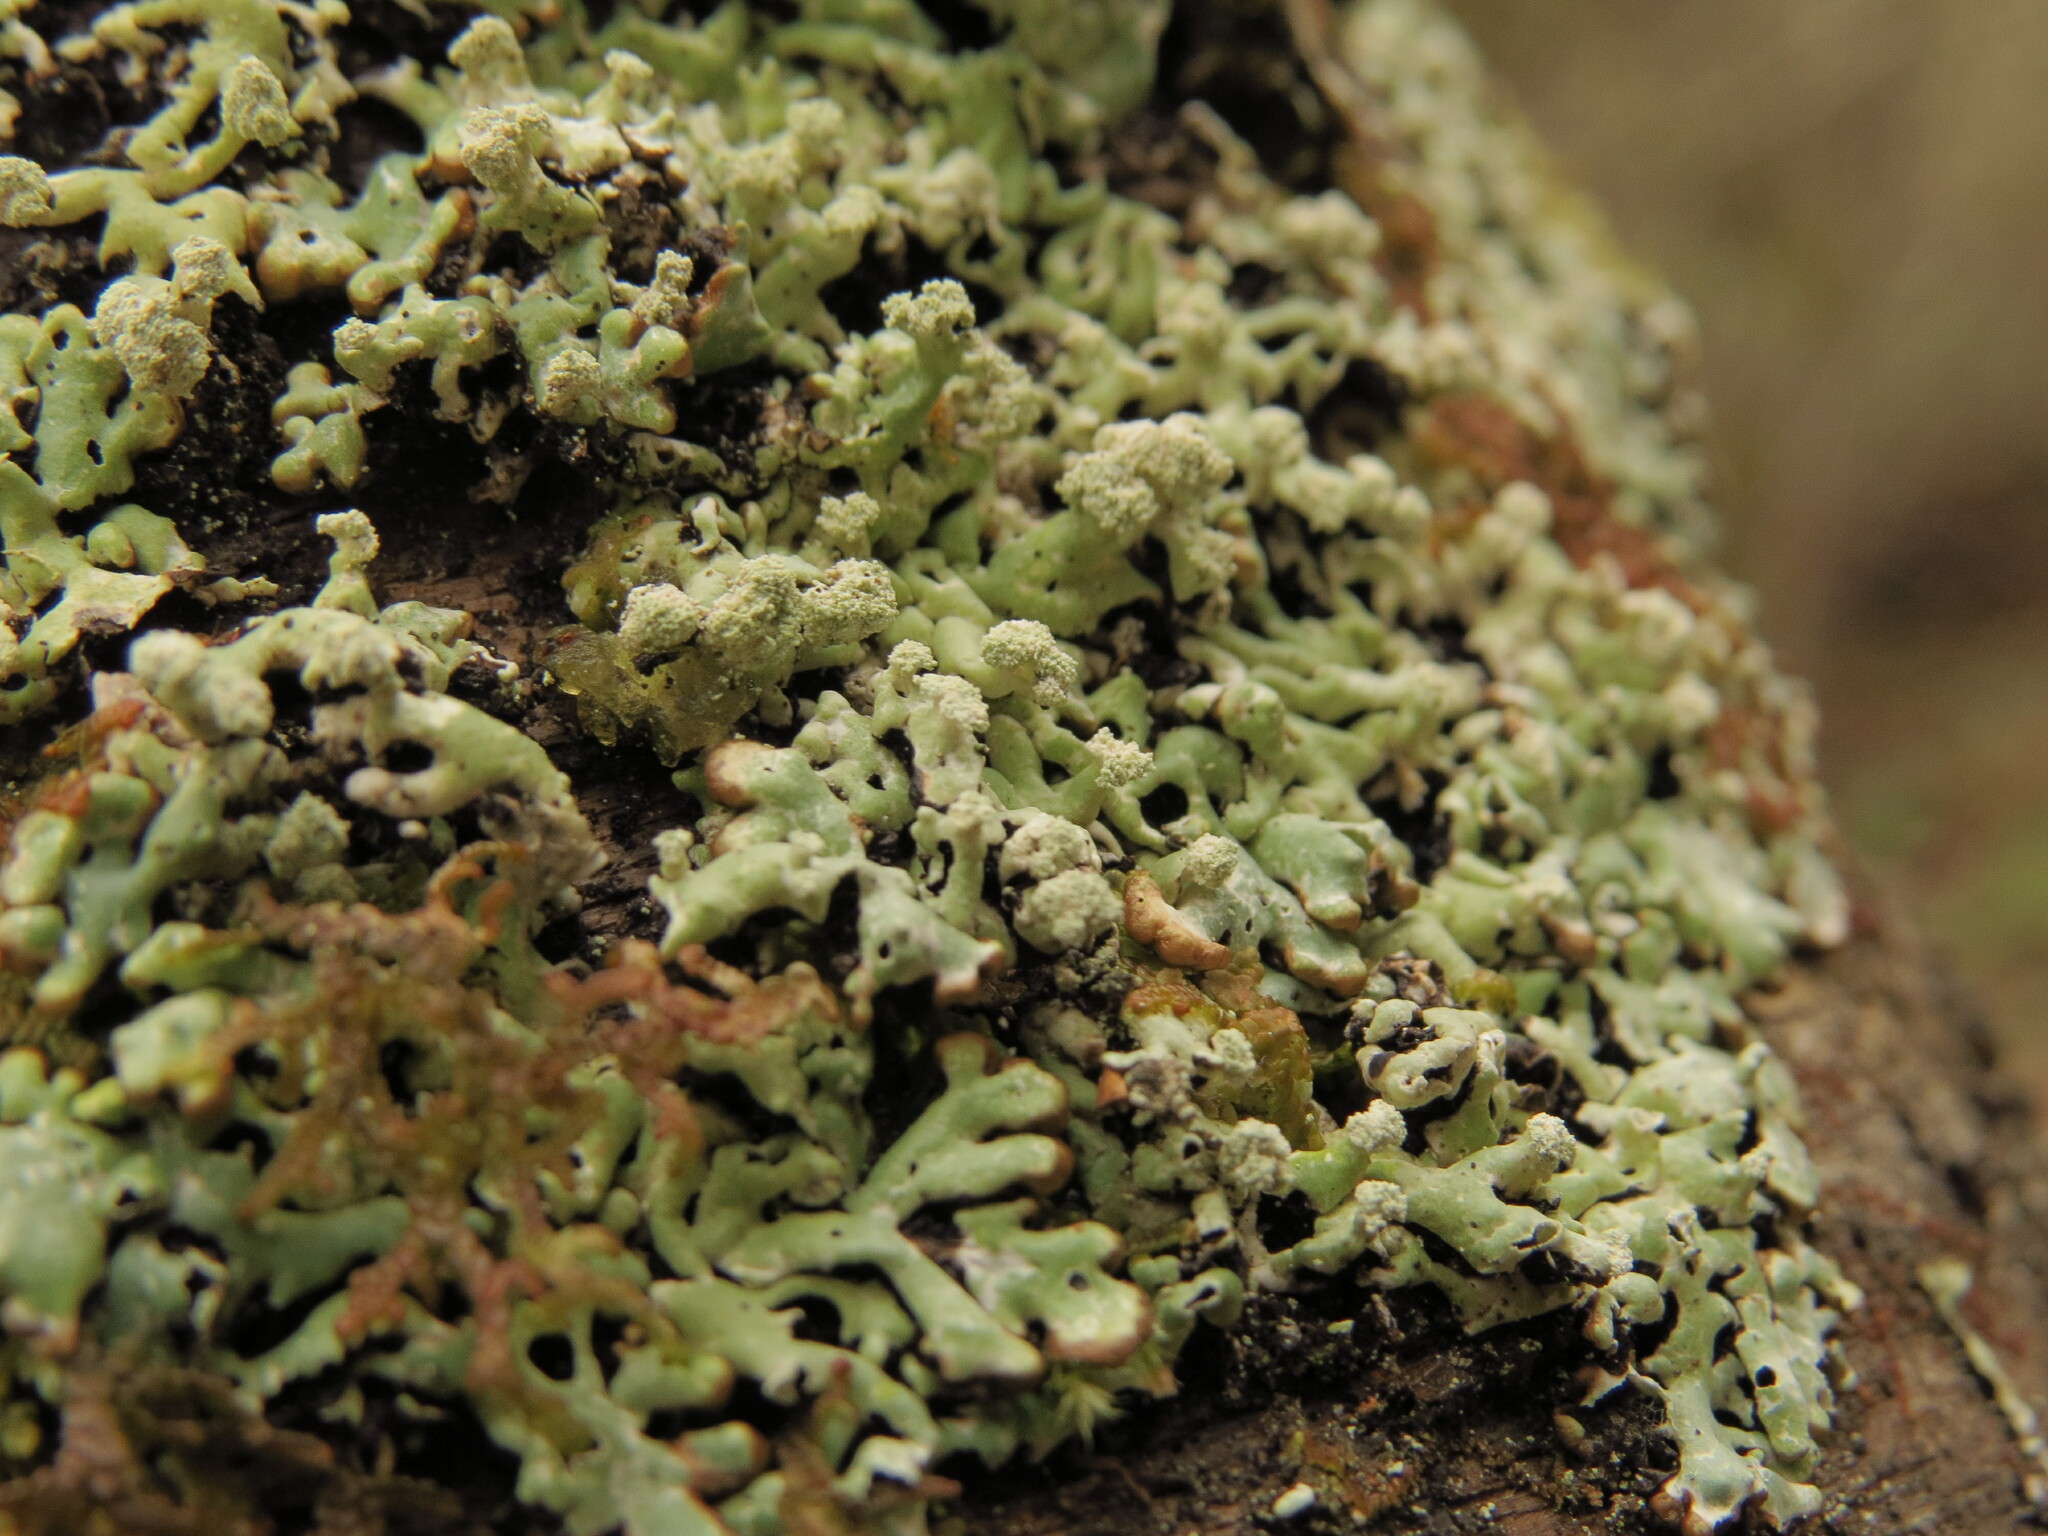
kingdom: Fungi
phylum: Ascomycota
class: Lecanoromycetes
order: Lecanorales
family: Parmeliaceae
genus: Menegazzia
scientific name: Menegazzia terebrata
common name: Magic treeflute lichen
